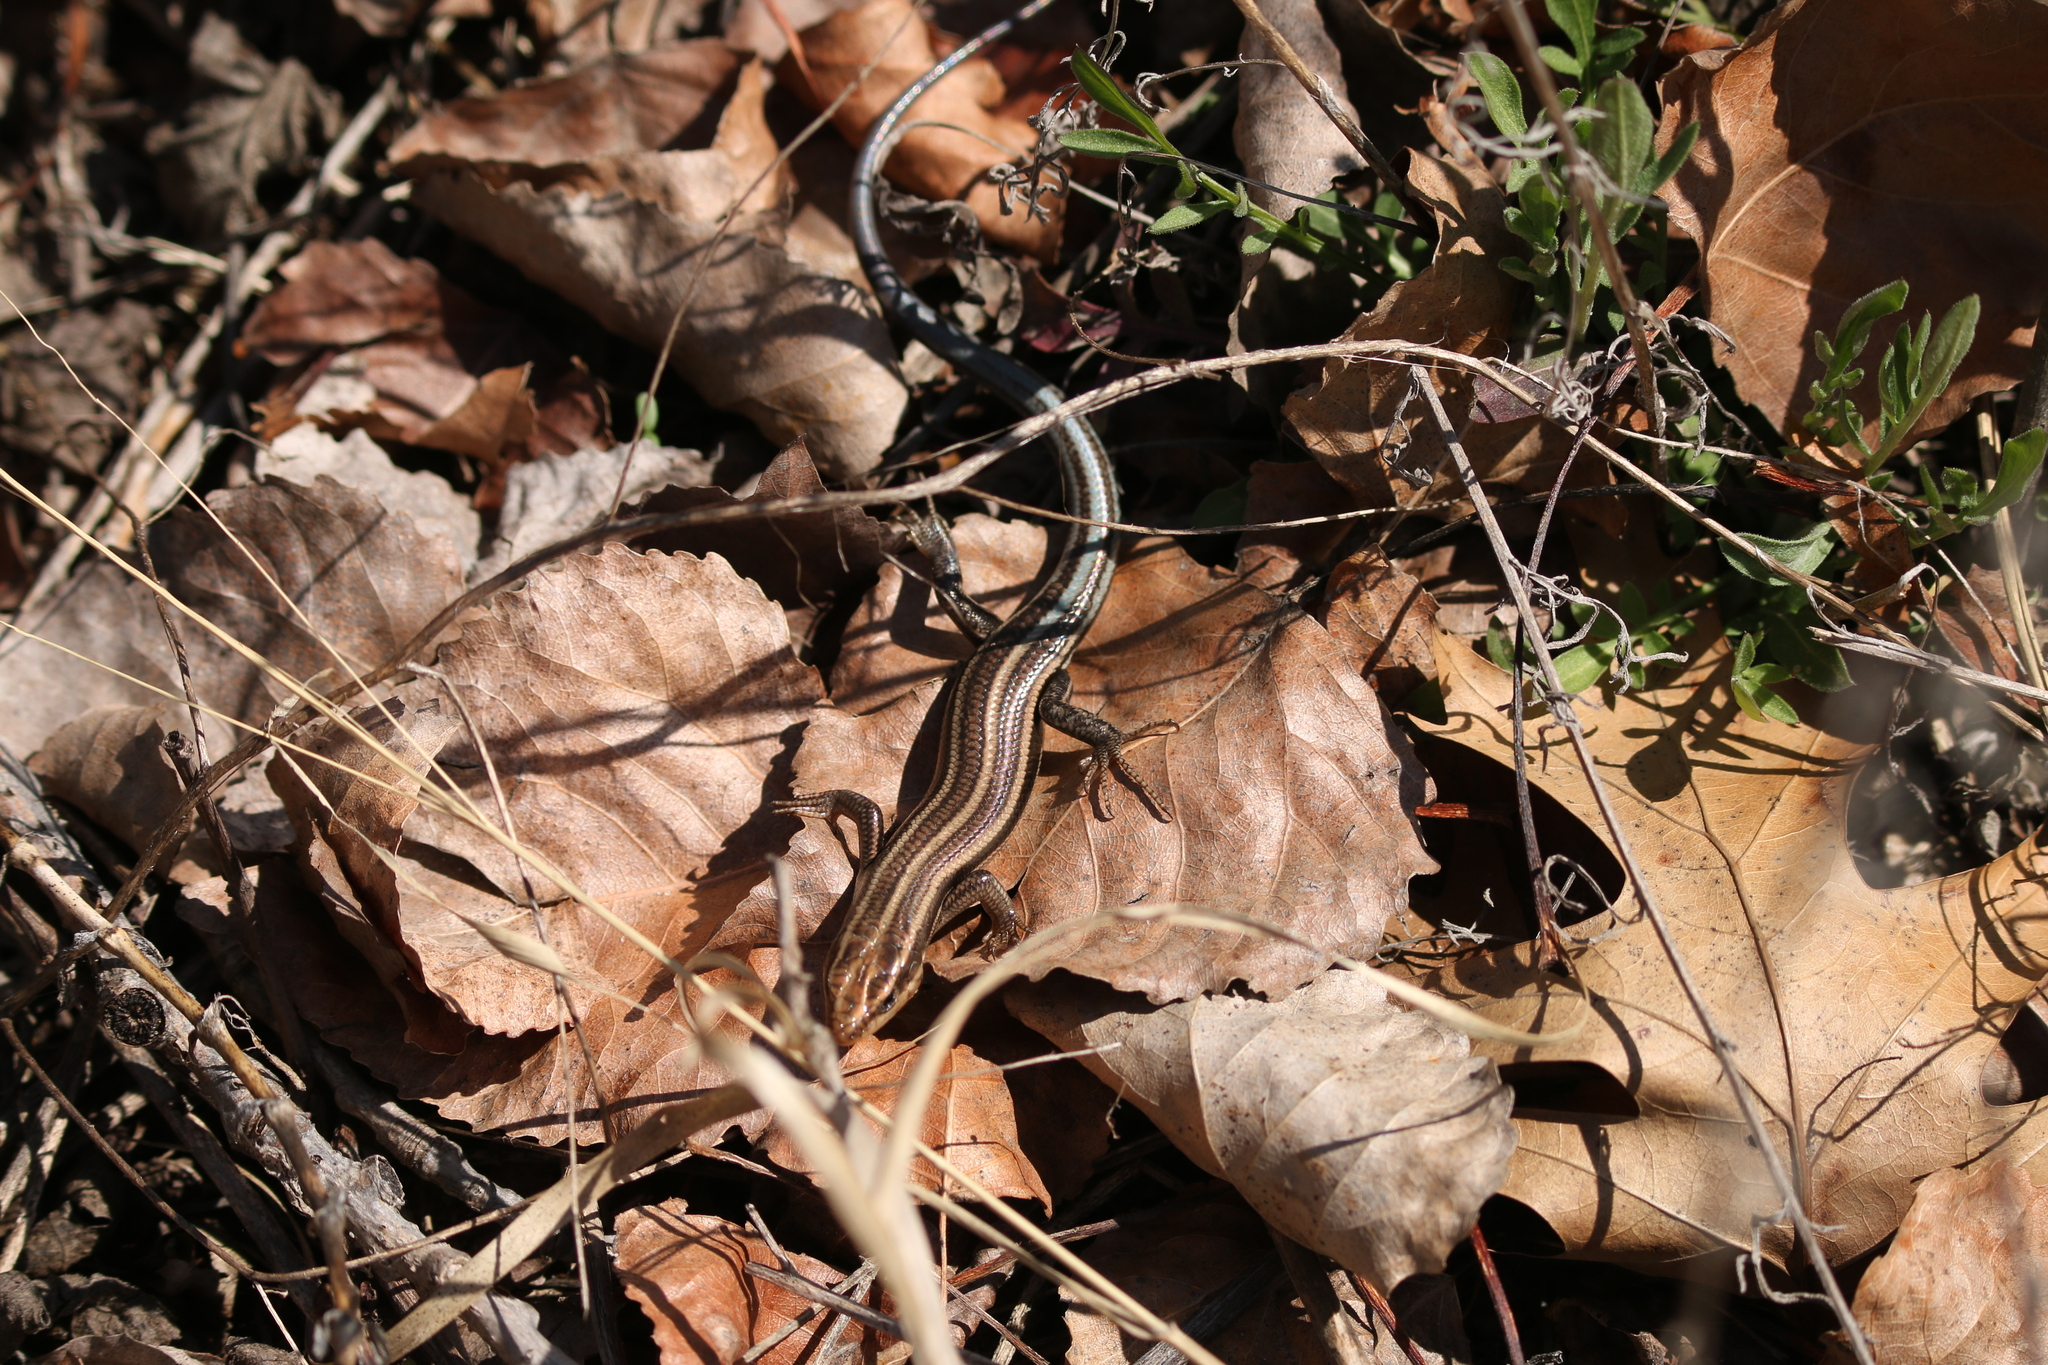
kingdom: Animalia
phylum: Chordata
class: Squamata
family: Scincidae
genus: Plestiodon
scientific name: Plestiodon fasciatus
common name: Five-lined skink
